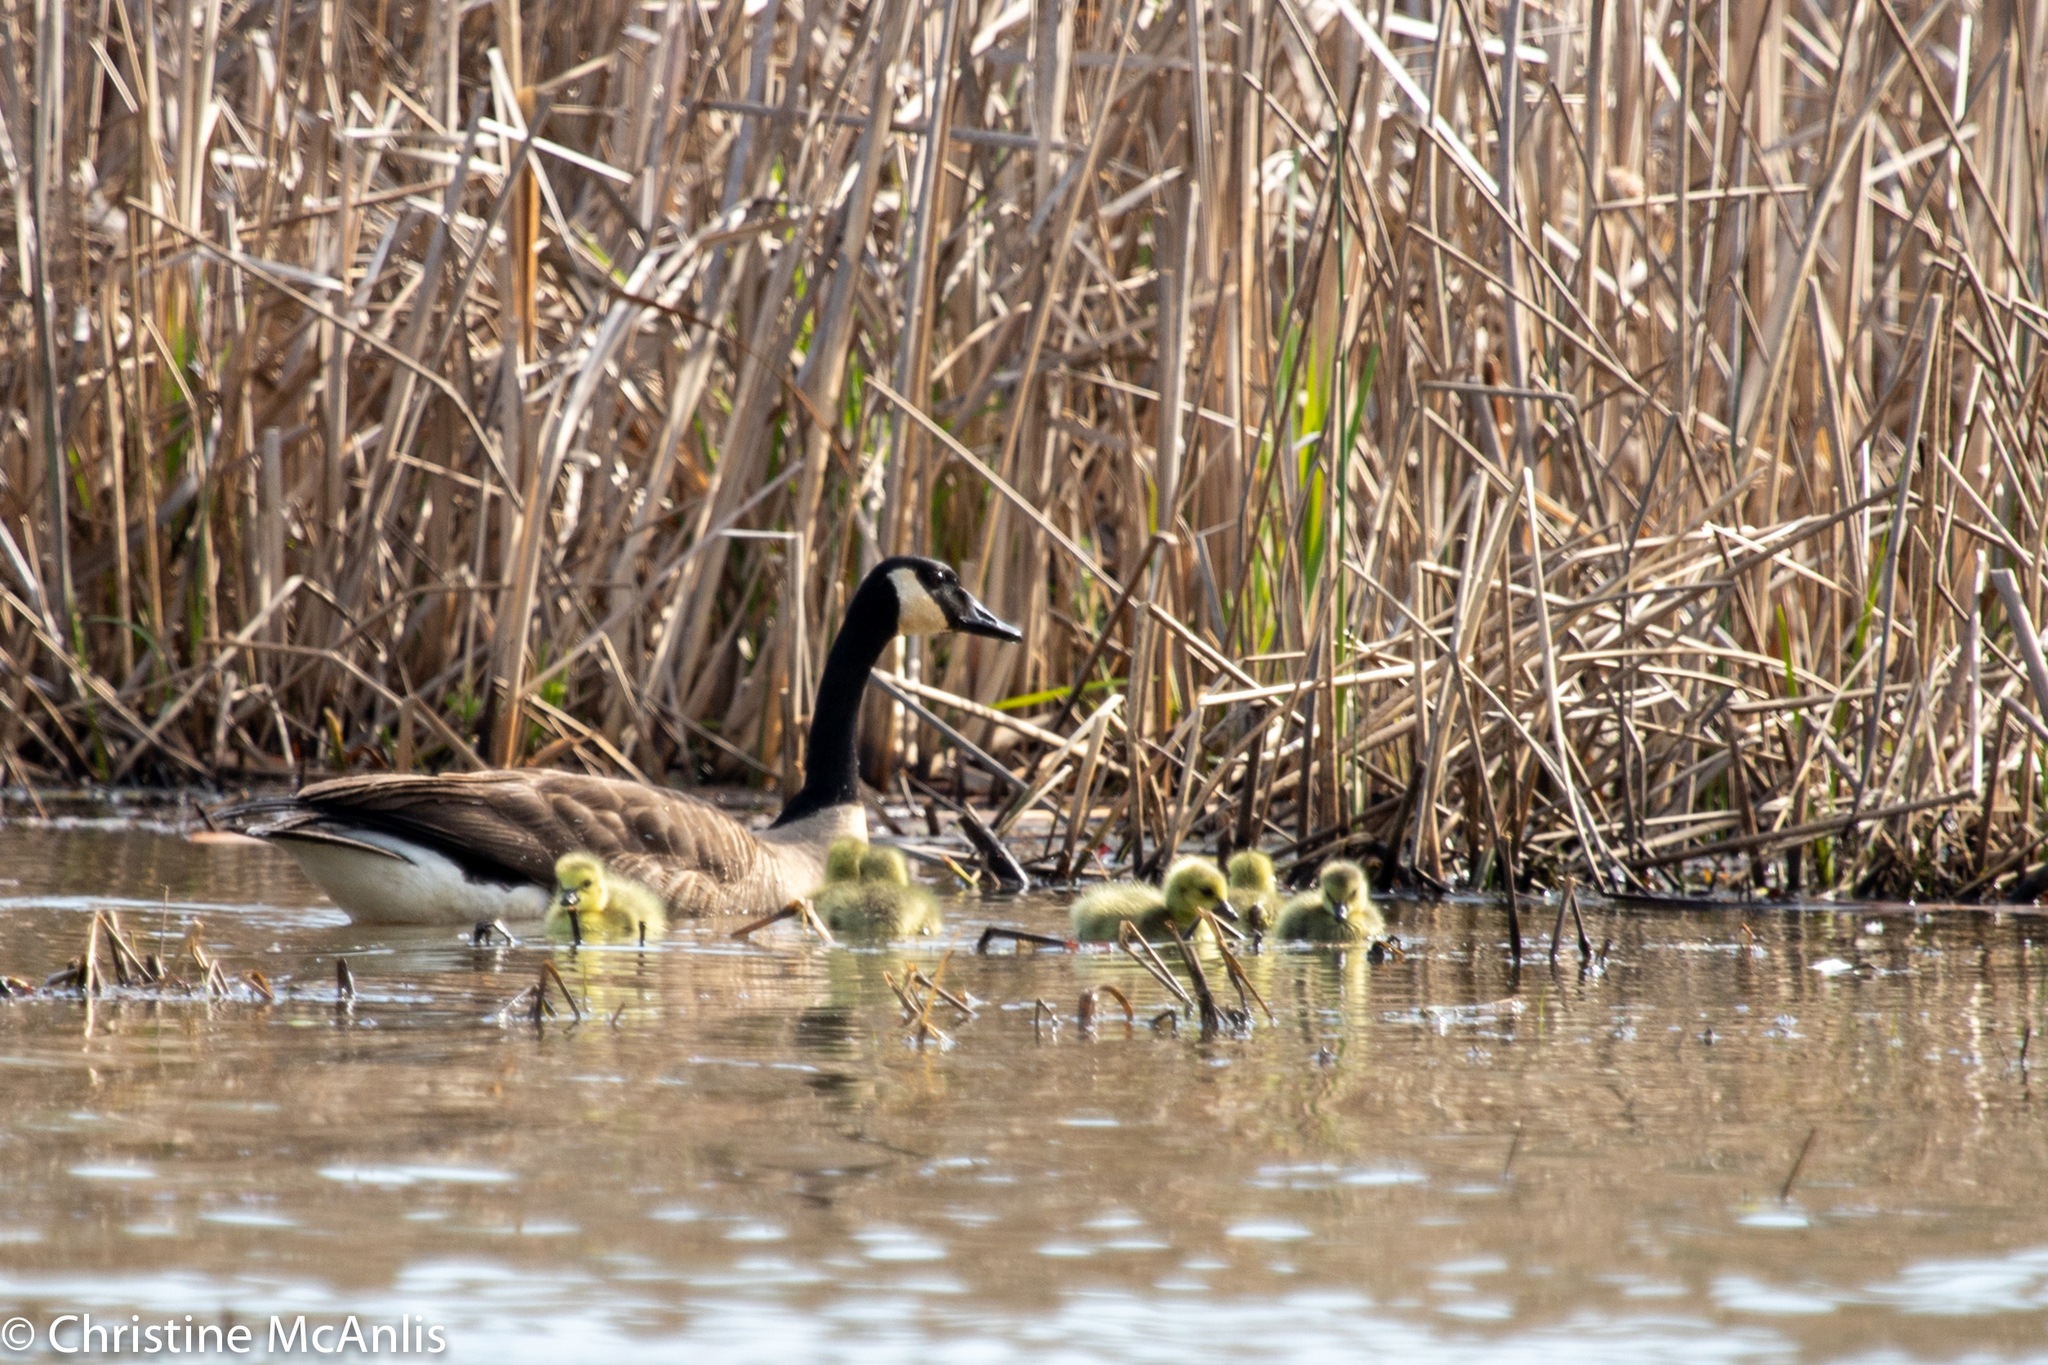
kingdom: Animalia
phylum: Chordata
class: Aves
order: Anseriformes
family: Anatidae
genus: Branta
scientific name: Branta canadensis
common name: Canada goose
